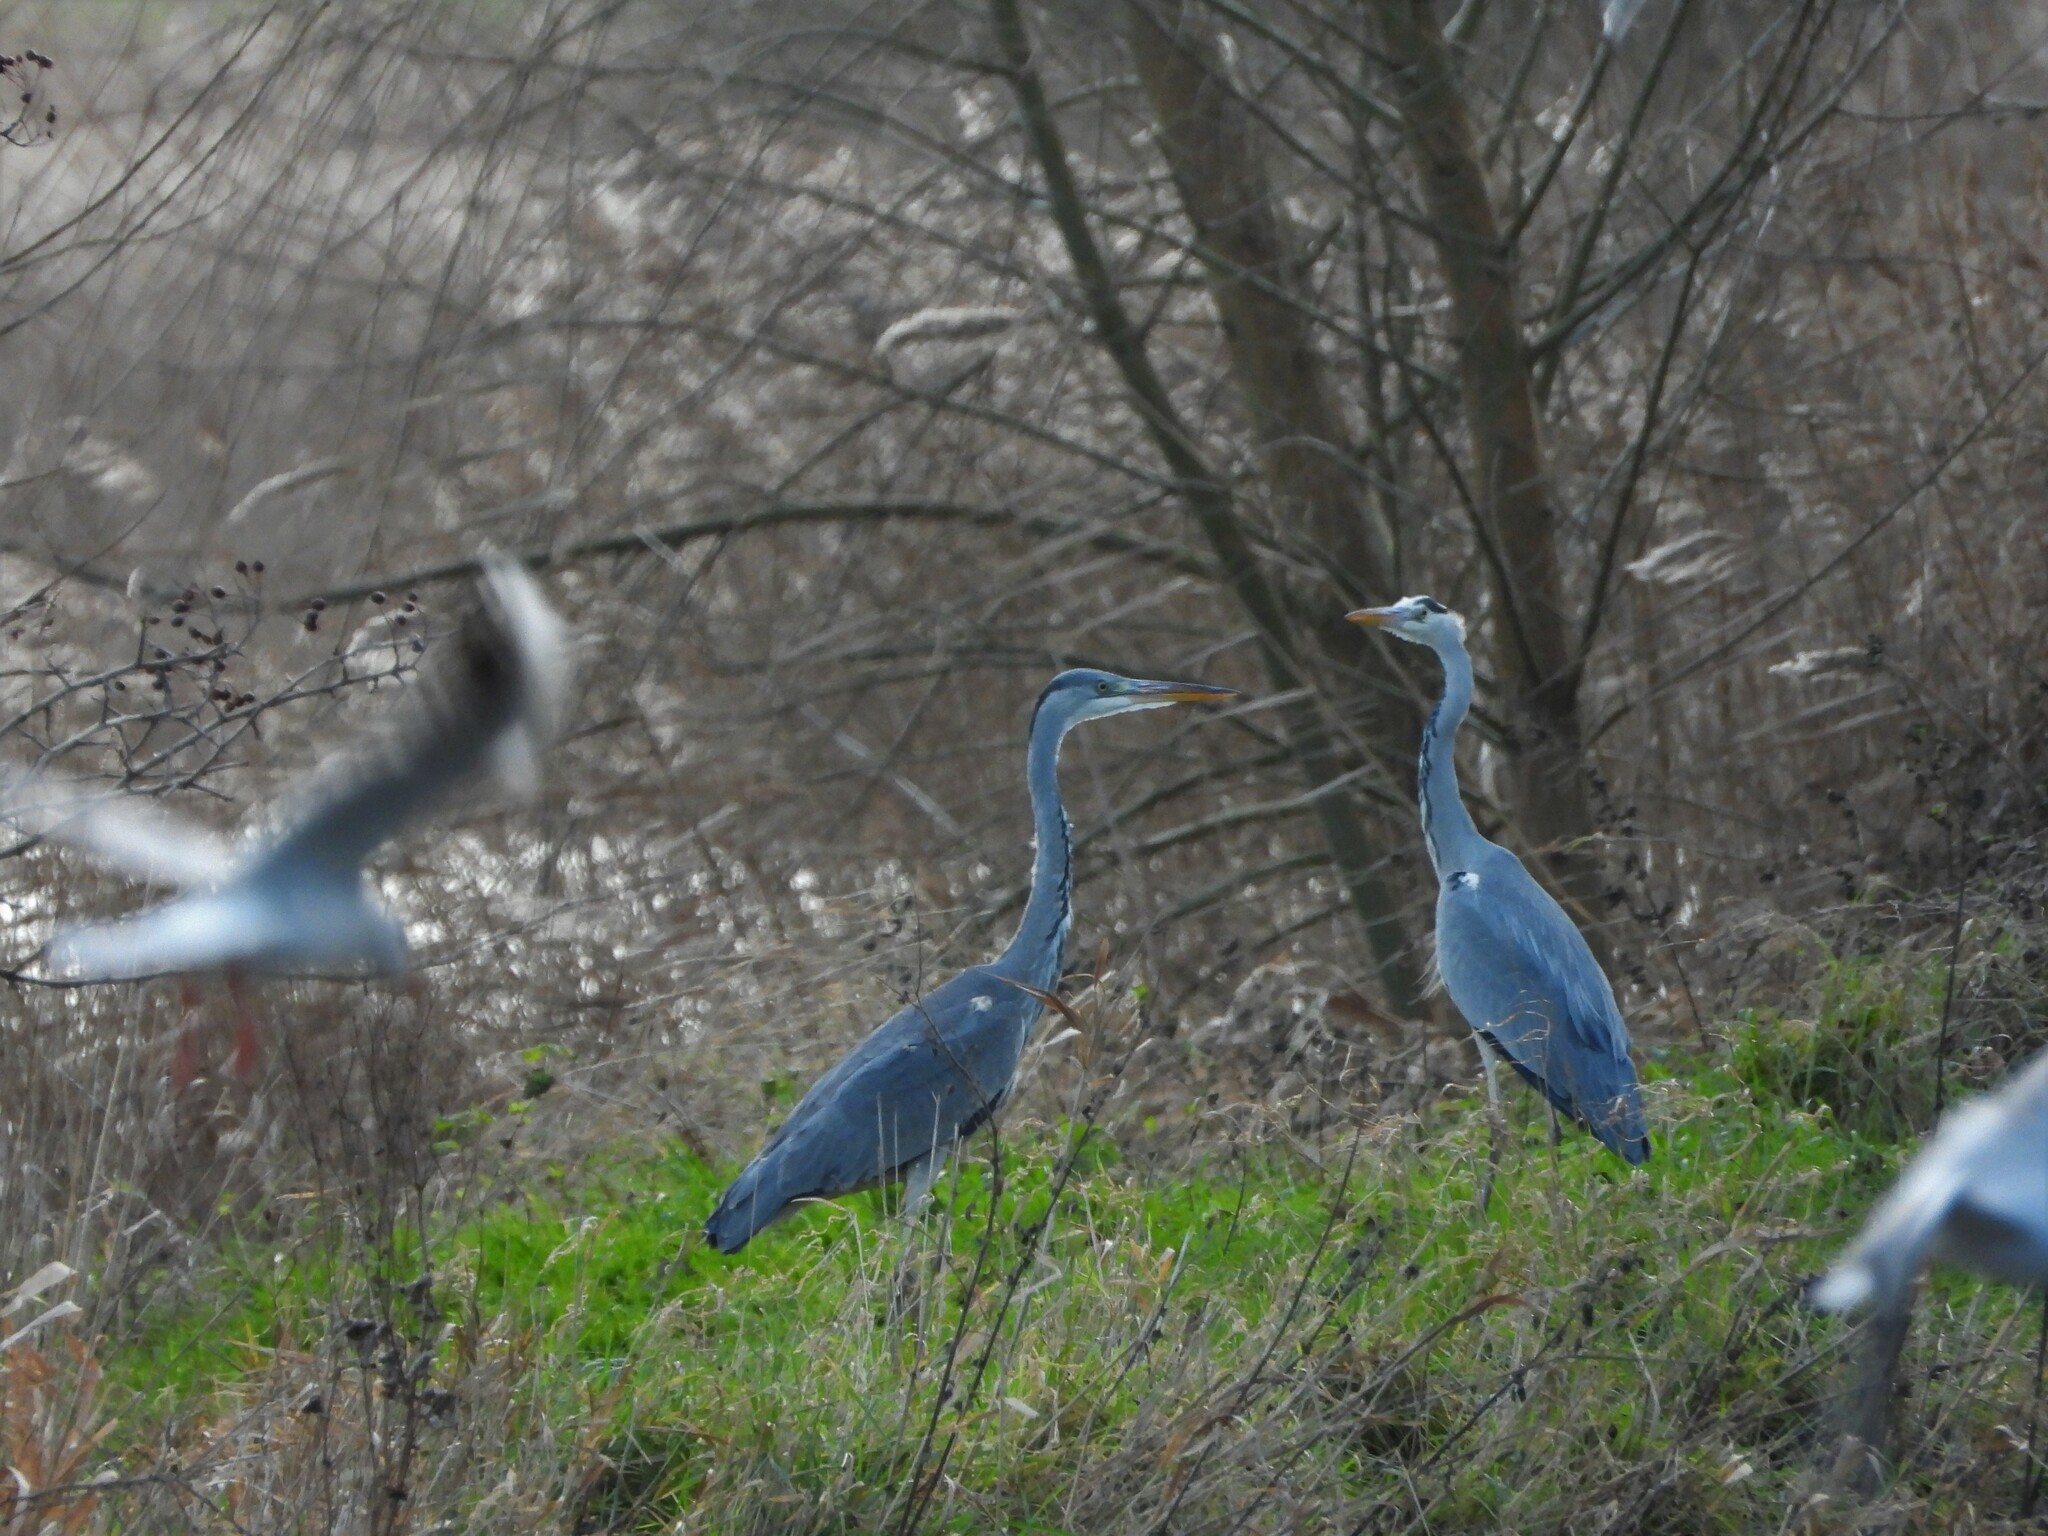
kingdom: Animalia
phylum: Chordata
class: Aves
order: Pelecaniformes
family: Ardeidae
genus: Ardea
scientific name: Ardea cinerea
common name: Grey heron
